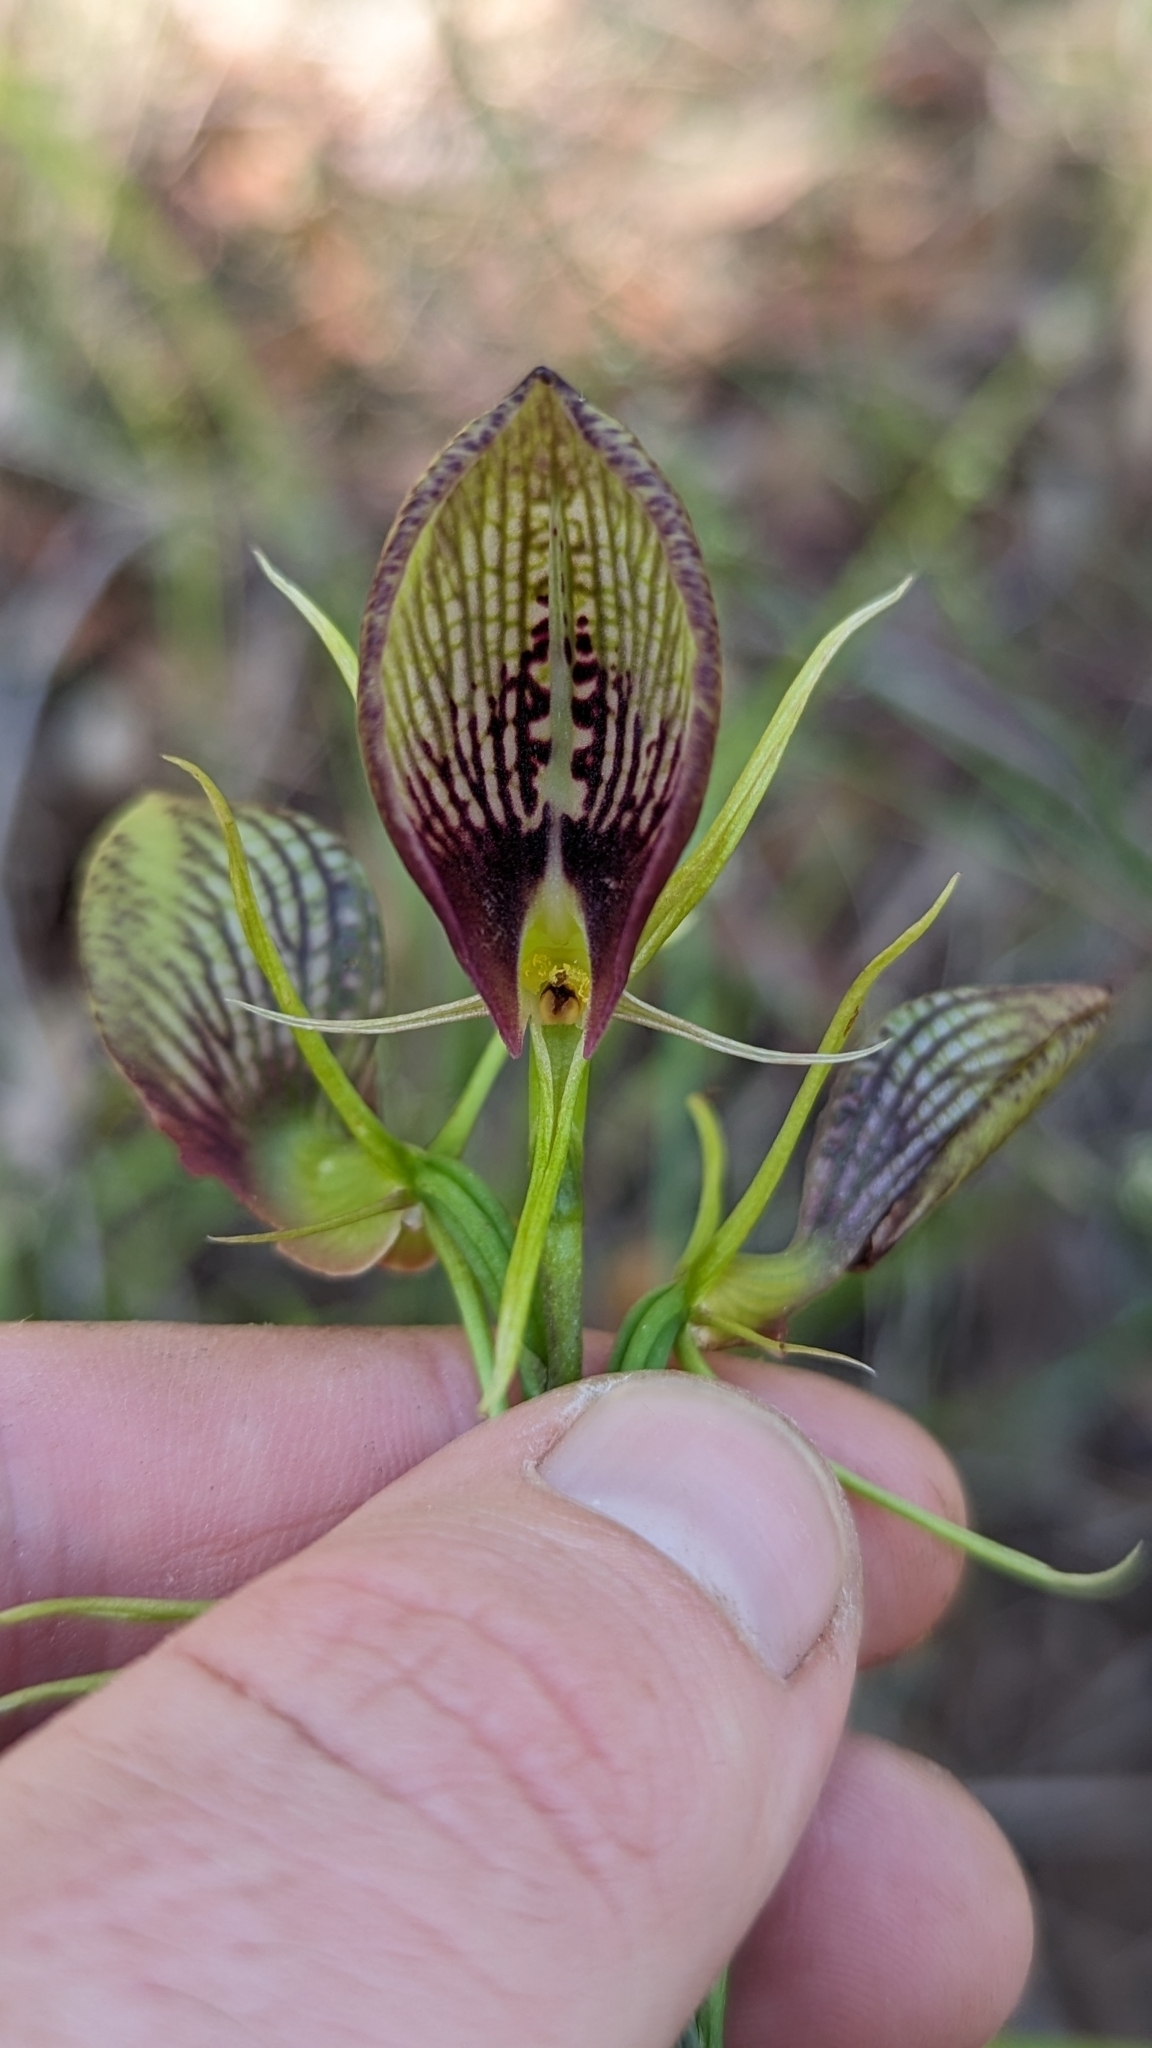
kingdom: Plantae
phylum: Tracheophyta
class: Liliopsida
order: Asparagales
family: Orchidaceae
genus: Cryptostylis
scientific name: Cryptostylis erecta
